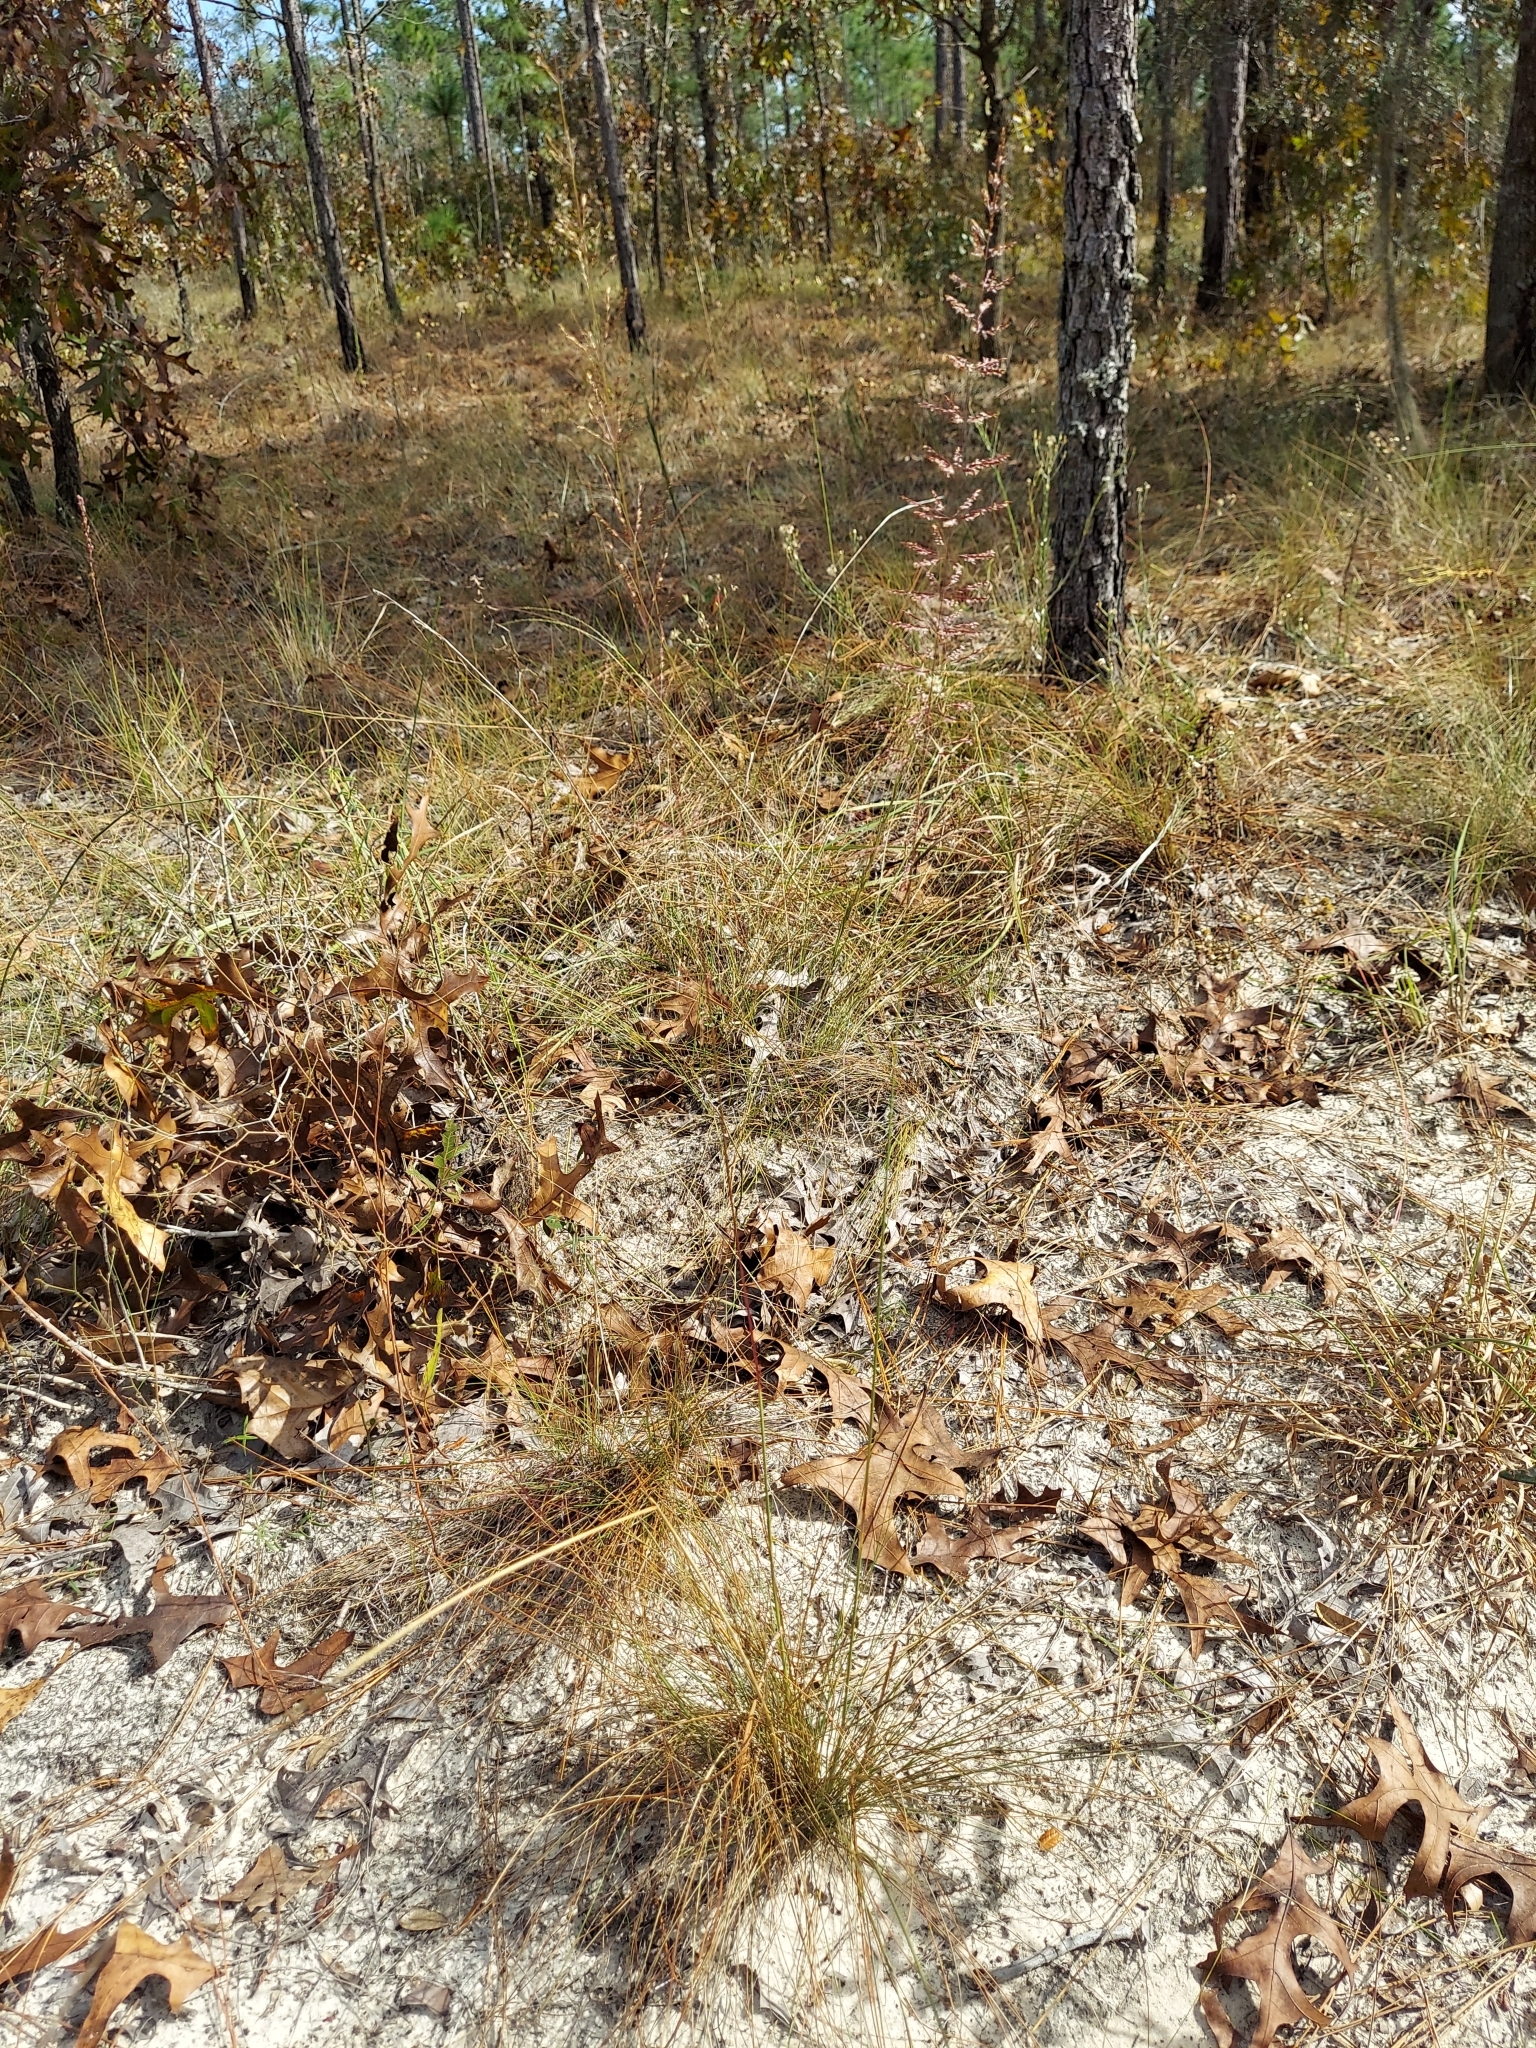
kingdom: Plantae
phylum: Tracheophyta
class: Liliopsida
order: Poales
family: Poaceae
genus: Sporobolus
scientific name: Sporobolus junceus
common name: Lizard grass
